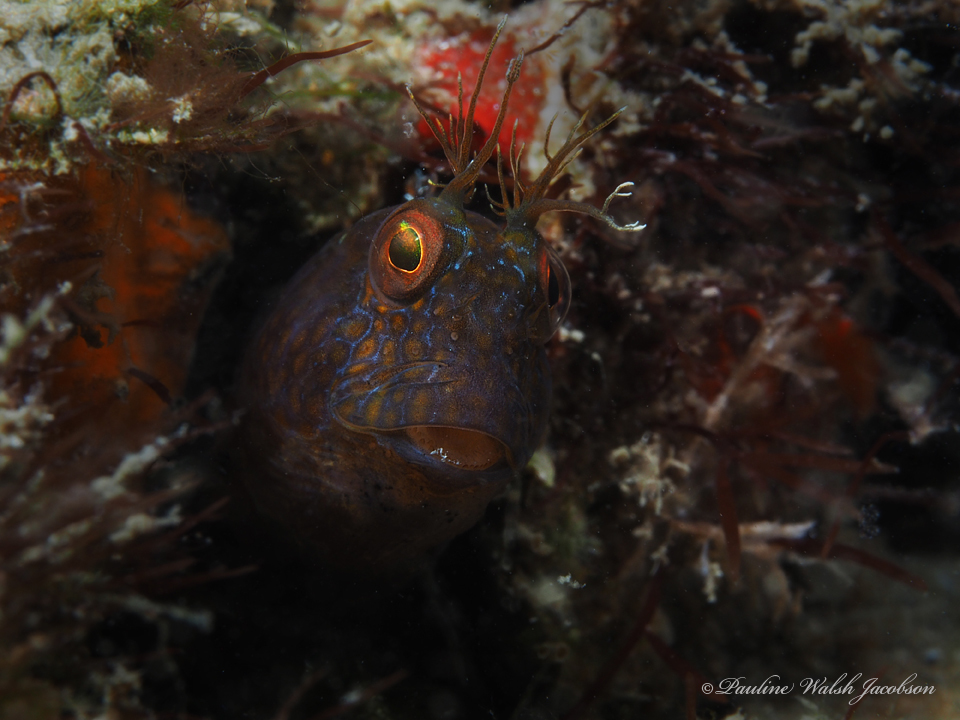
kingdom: Animalia
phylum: Chordata
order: Perciformes
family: Blenniidae
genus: Parablennius
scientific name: Parablennius marmoreus
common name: Seaweed blenny
